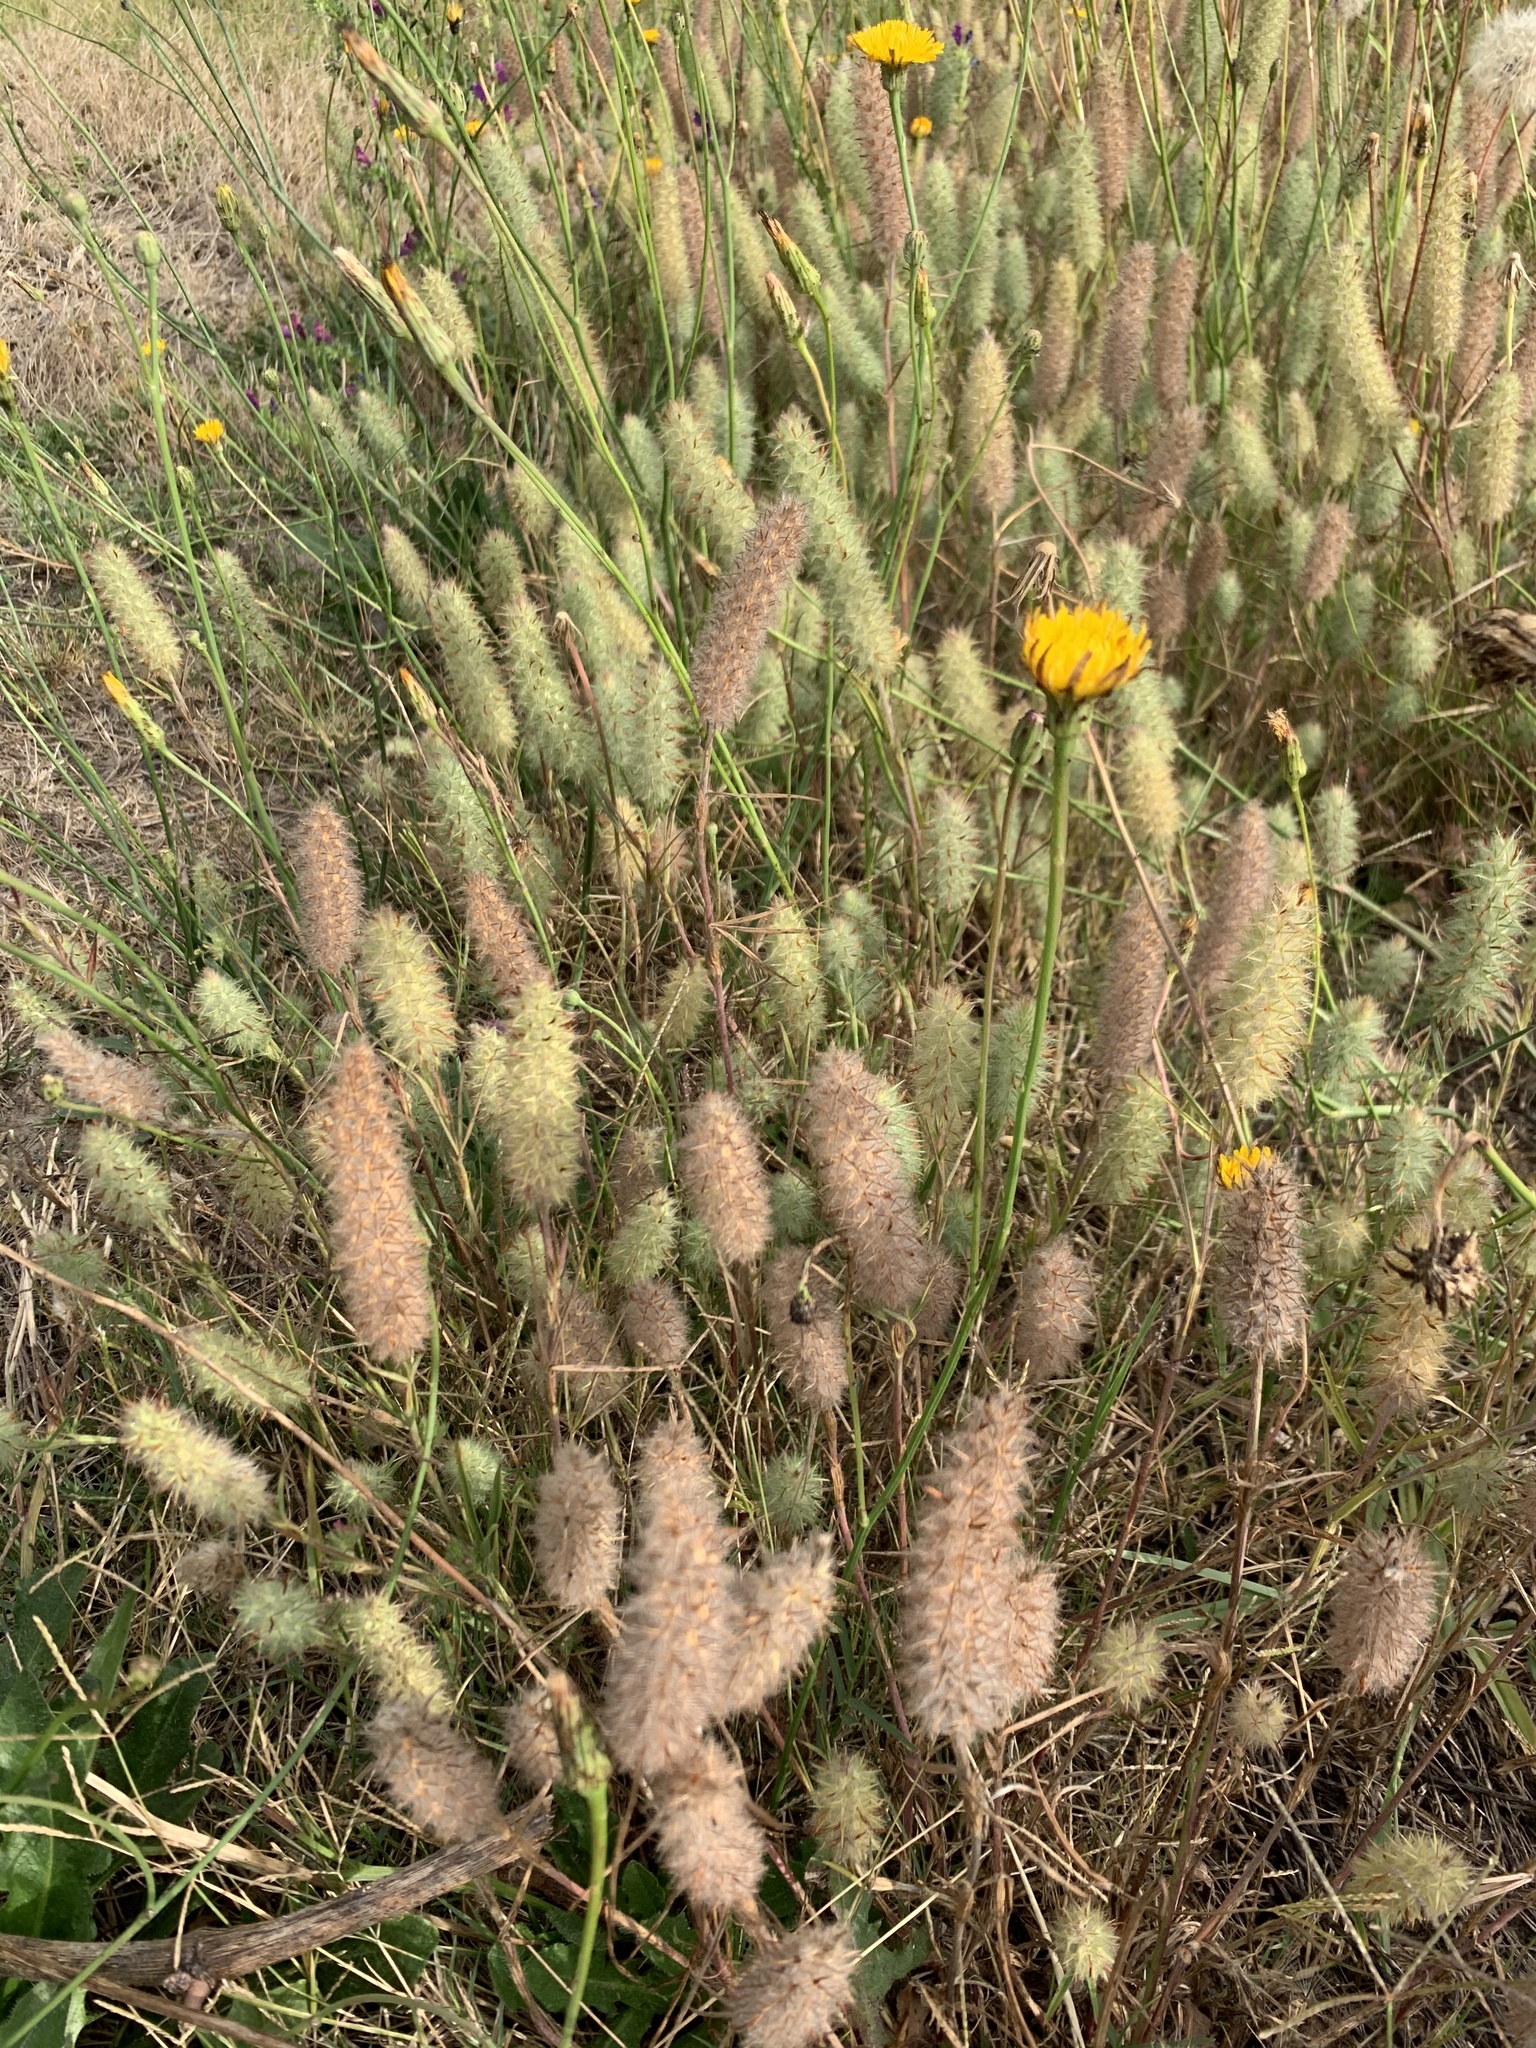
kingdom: Plantae
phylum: Tracheophyta
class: Magnoliopsida
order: Fabales
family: Fabaceae
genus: Trifolium
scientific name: Trifolium angustifolium
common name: Narrow clover
